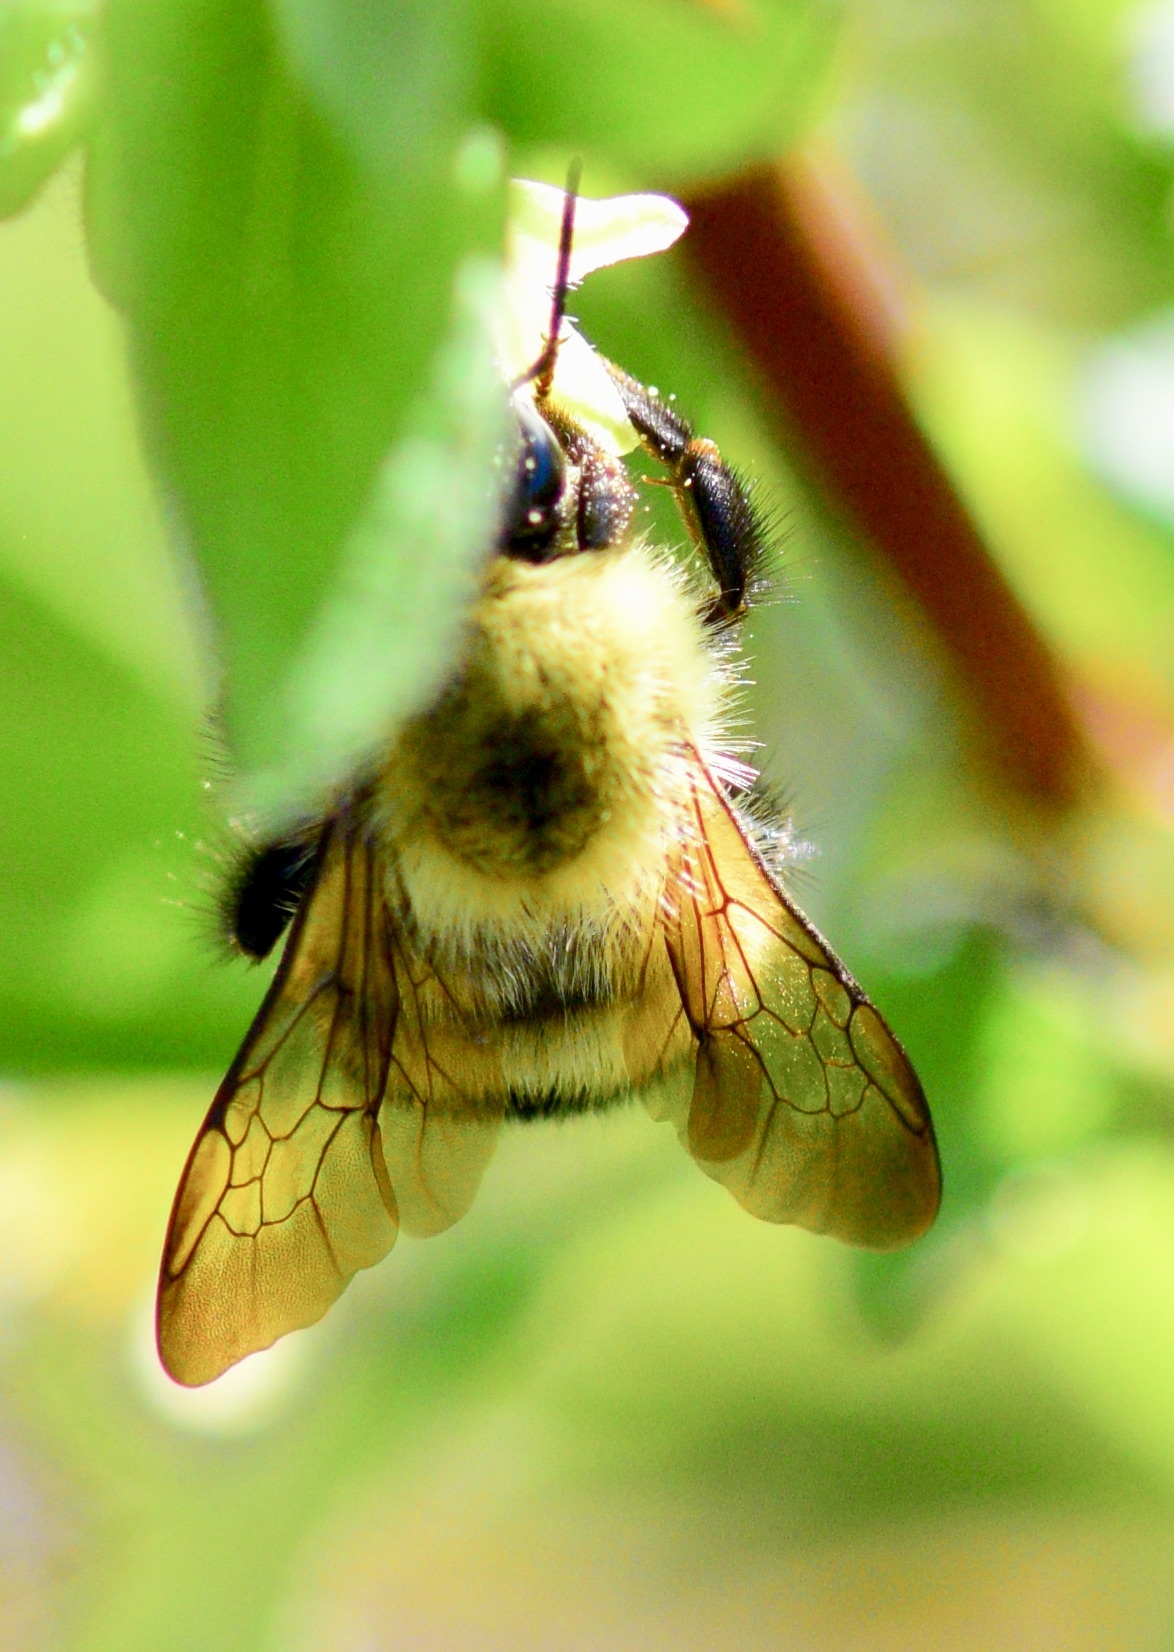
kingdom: Animalia
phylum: Arthropoda
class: Insecta
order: Hymenoptera
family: Apidae
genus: Bombus
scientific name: Bombus perplexus
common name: Confusing bumble bee
